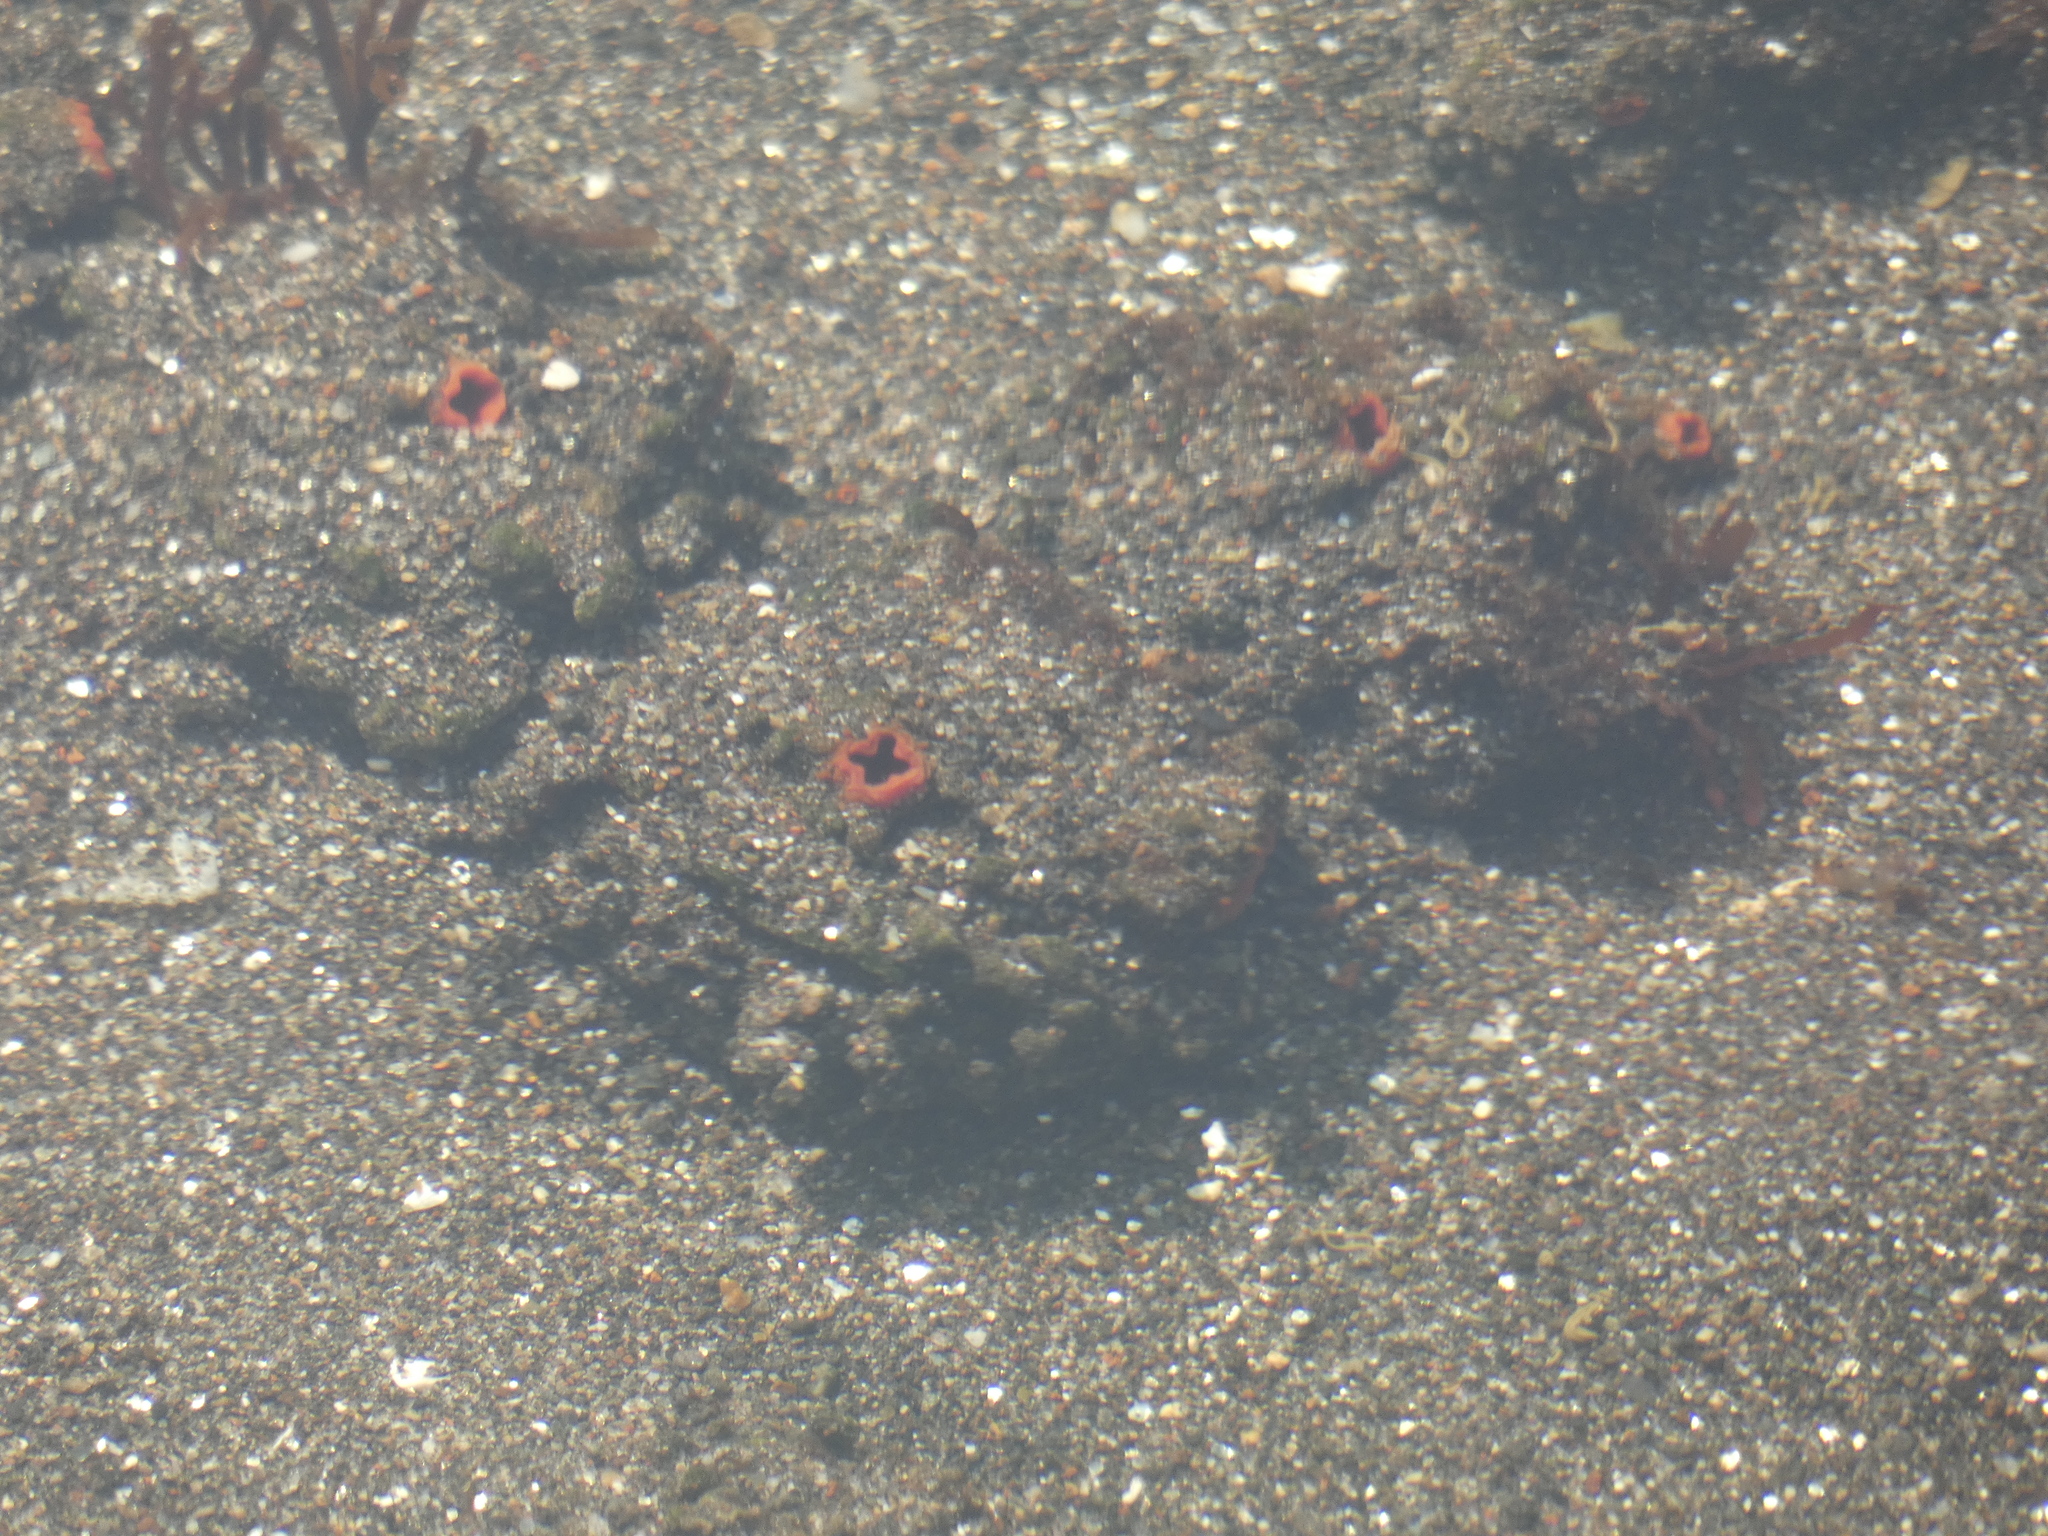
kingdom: Animalia
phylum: Chordata
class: Ascidiacea
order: Stolidobranchia
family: Pyuridae
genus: Pyura
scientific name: Pyura chilensis
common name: Red sea squirt
